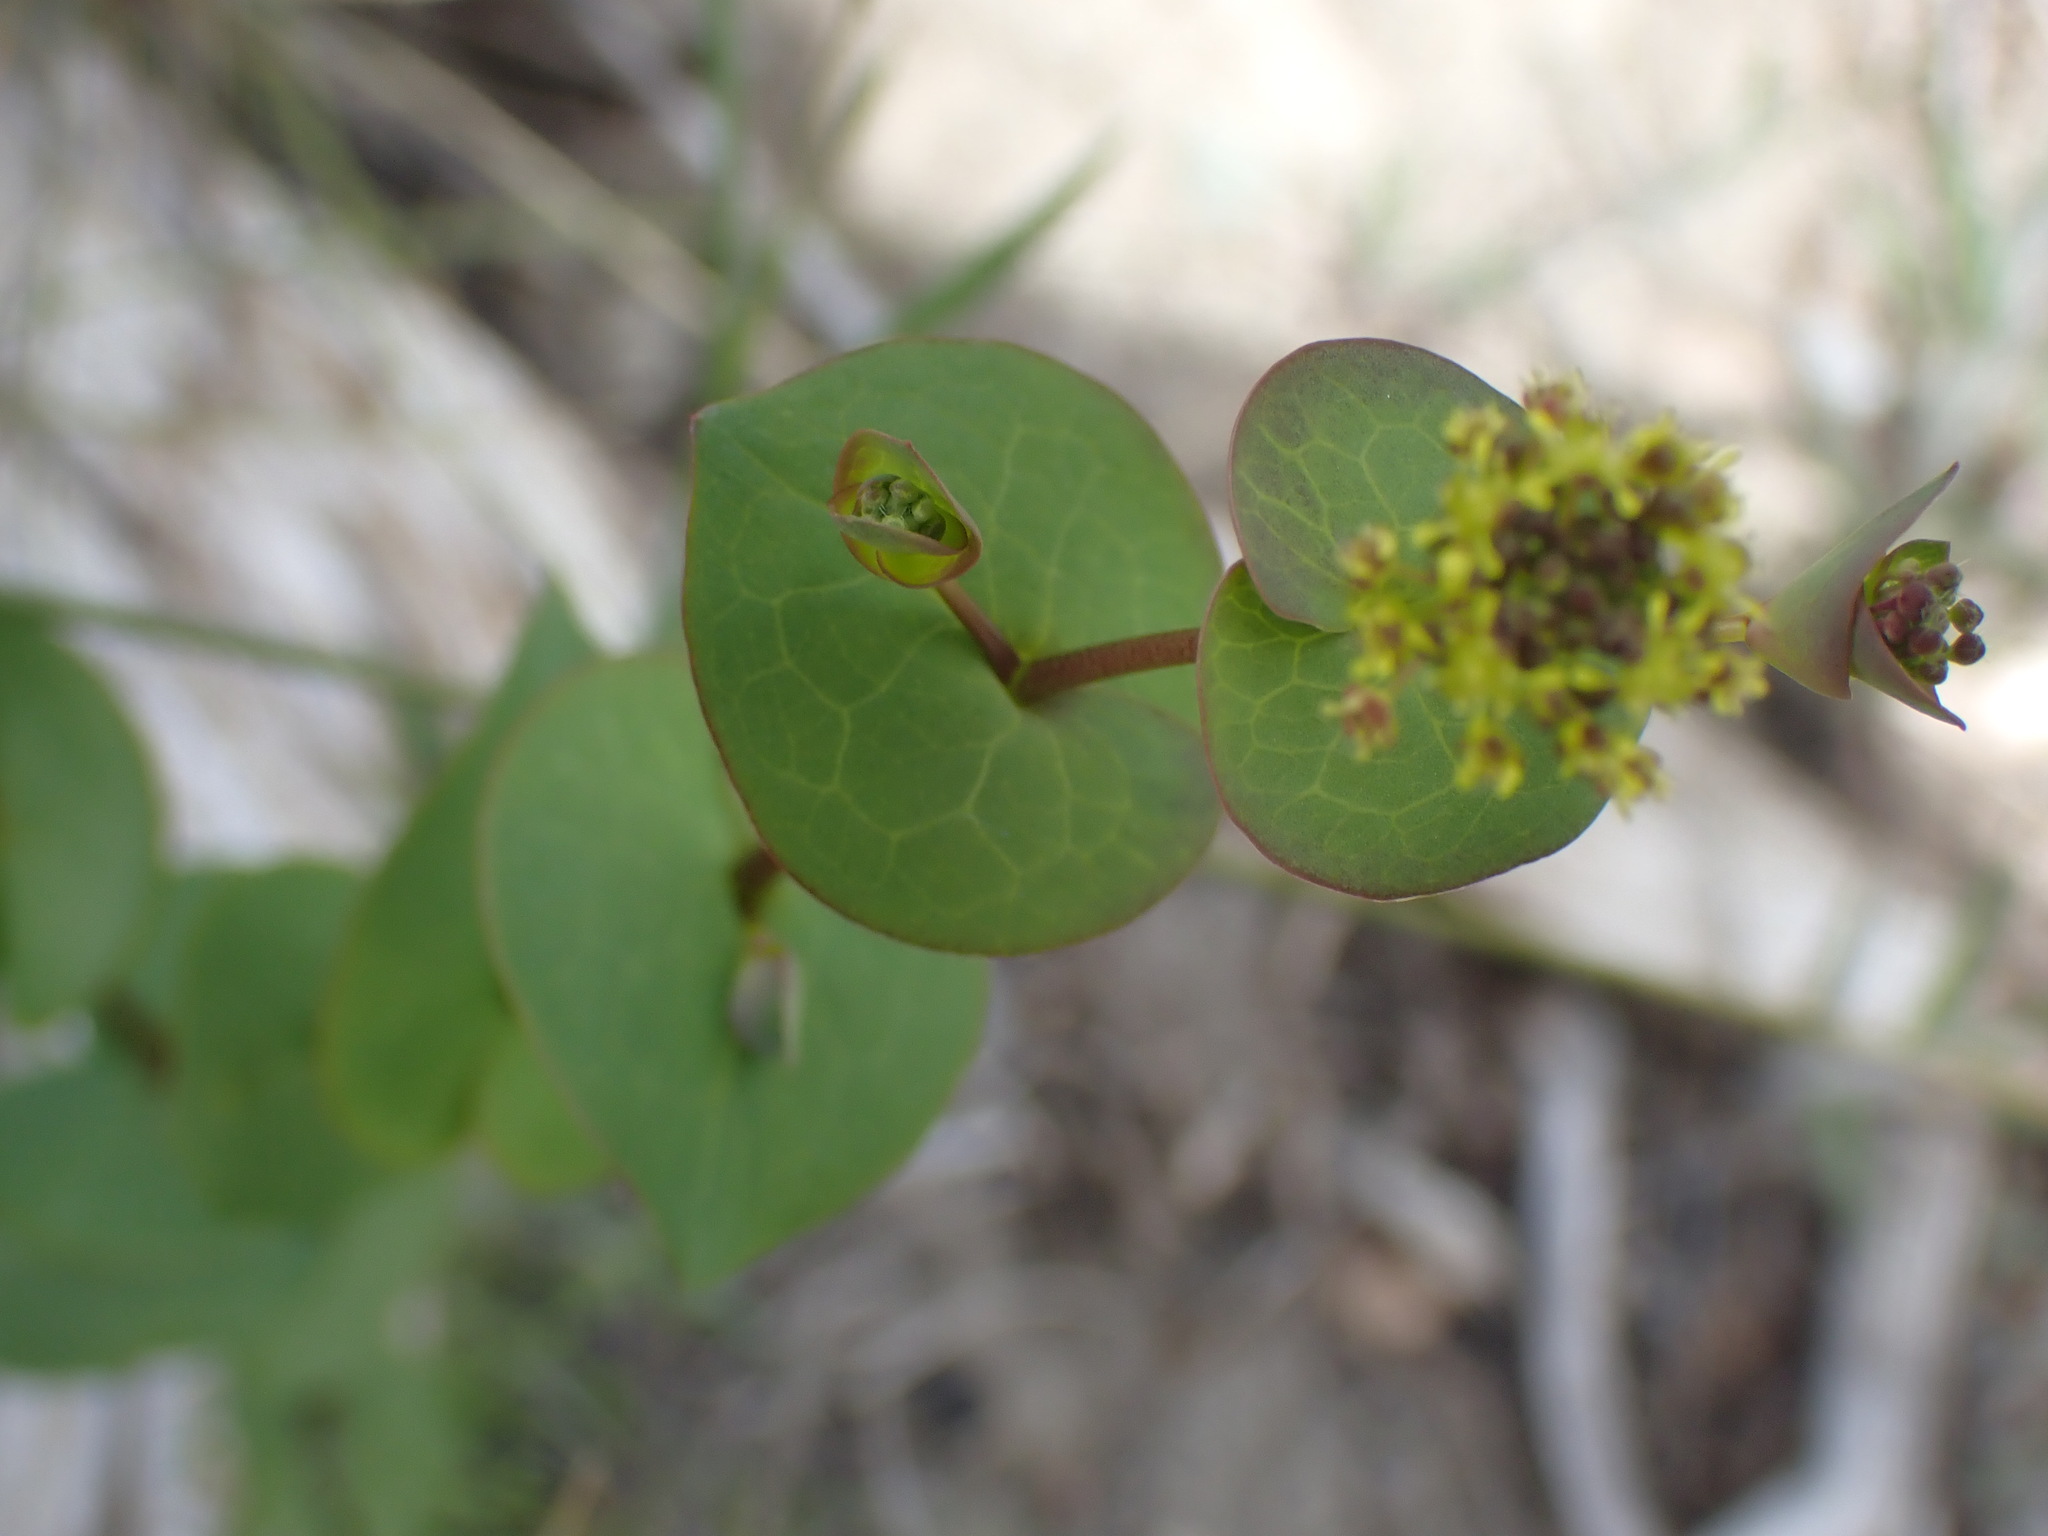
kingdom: Plantae
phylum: Tracheophyta
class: Magnoliopsida
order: Brassicales
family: Brassicaceae
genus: Lepidium
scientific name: Lepidium perfoliatum
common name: Perfoliate pepperwort
